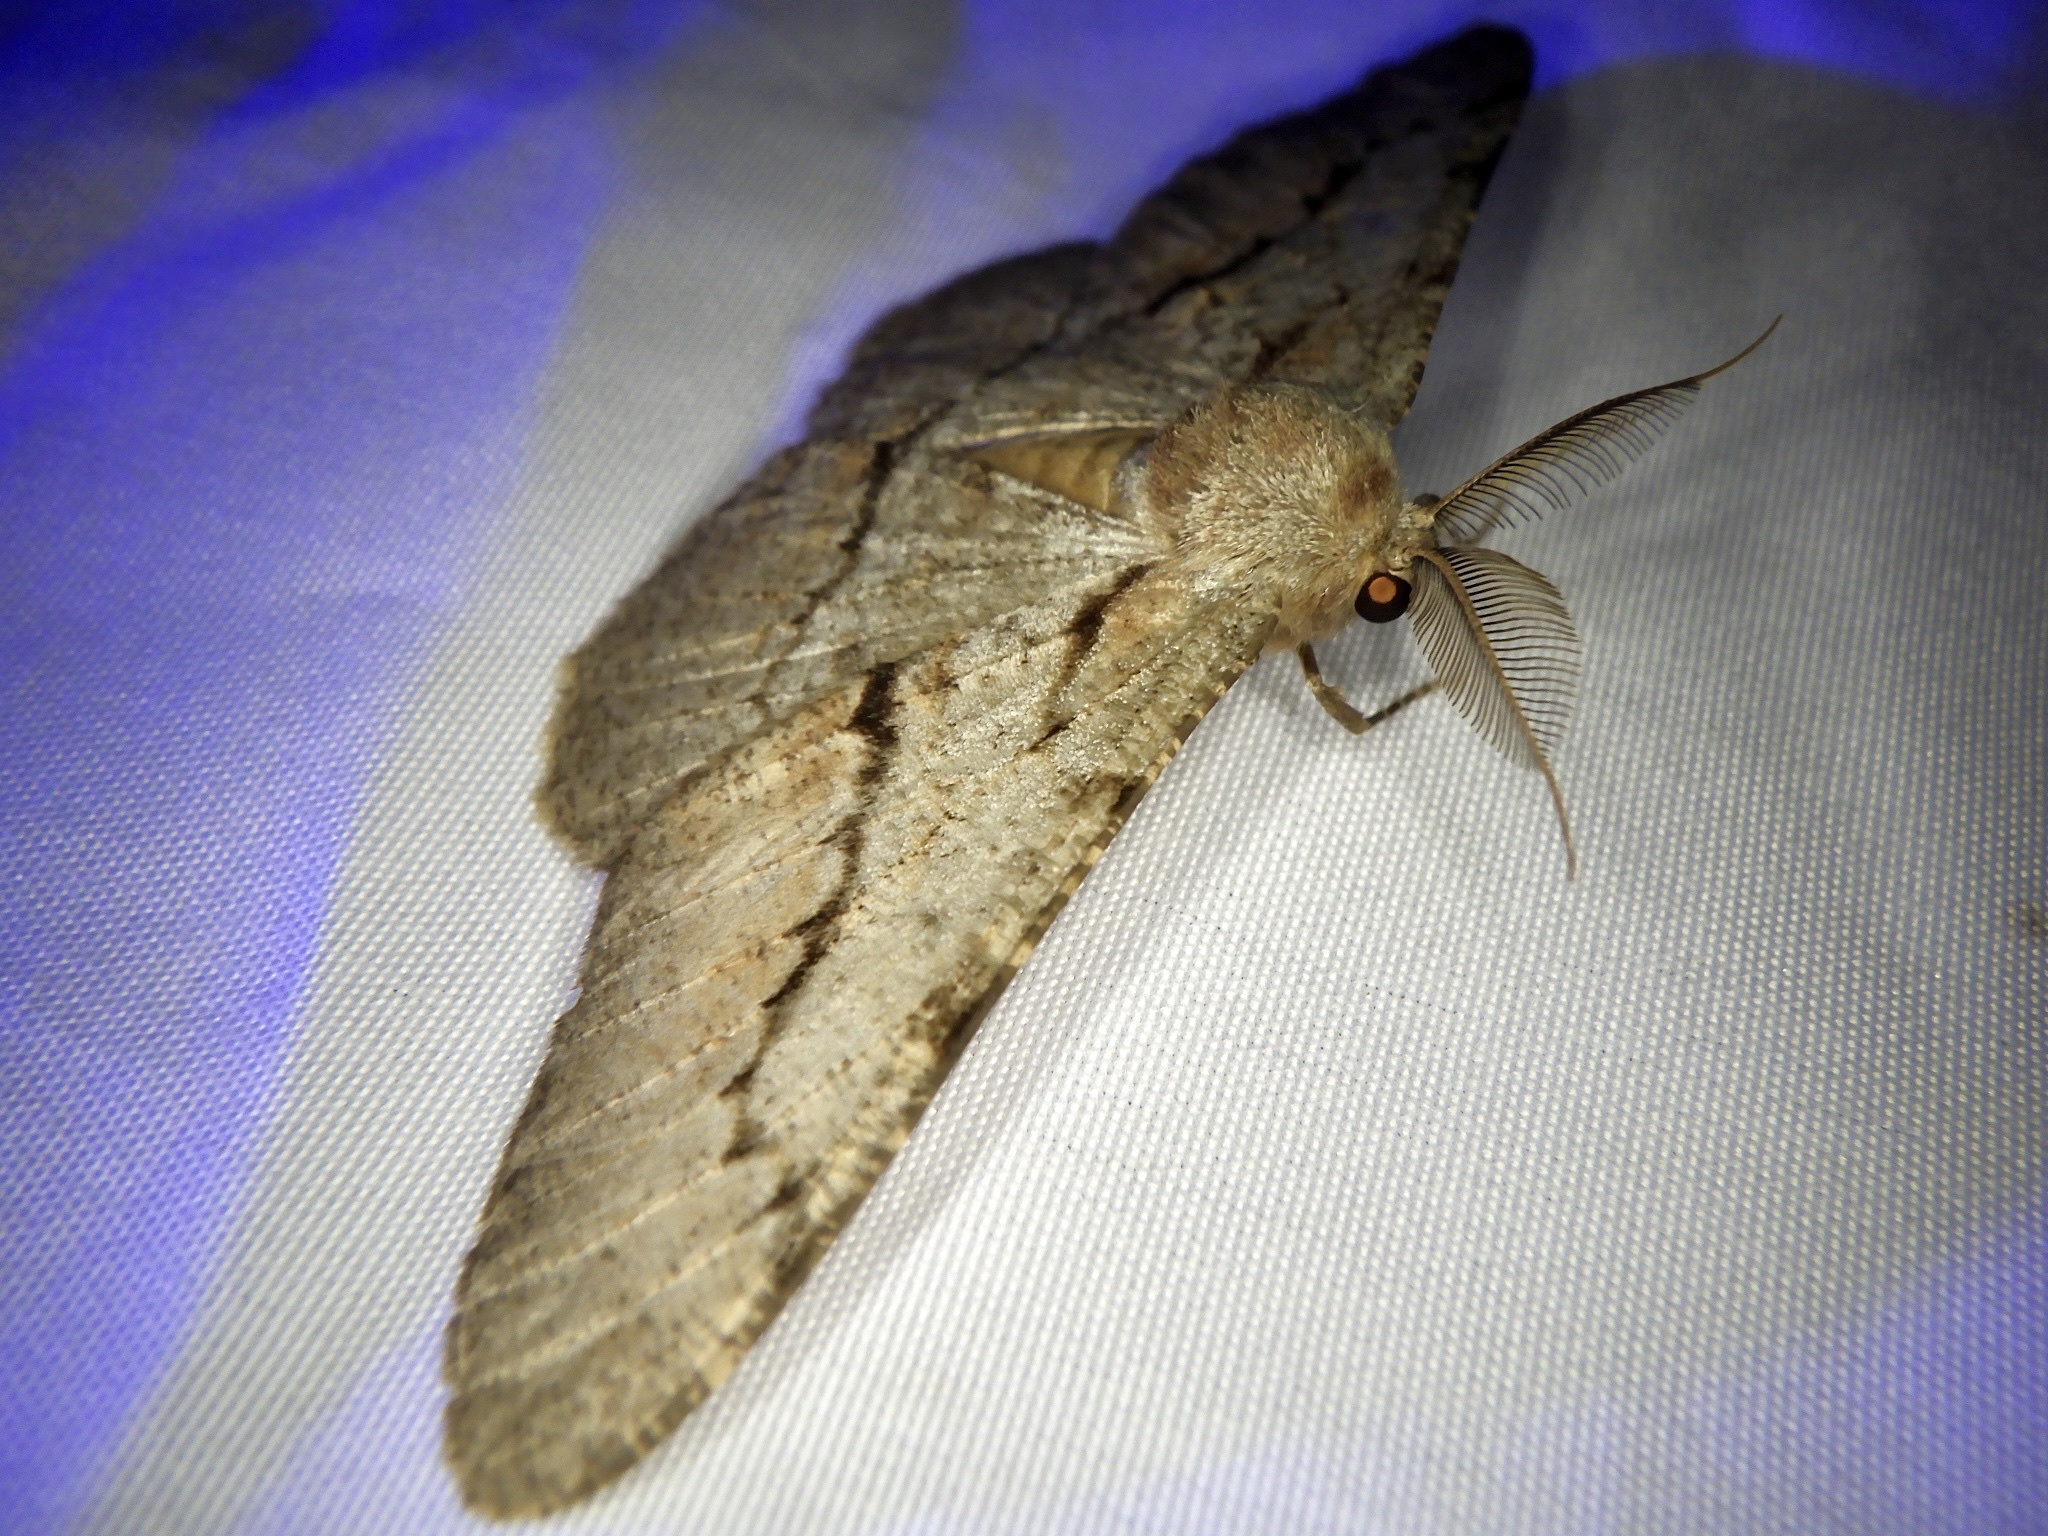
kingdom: Animalia
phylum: Arthropoda
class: Insecta
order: Lepidoptera
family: Geometridae
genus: Phthonosema
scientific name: Phthonosema tendinosaria
